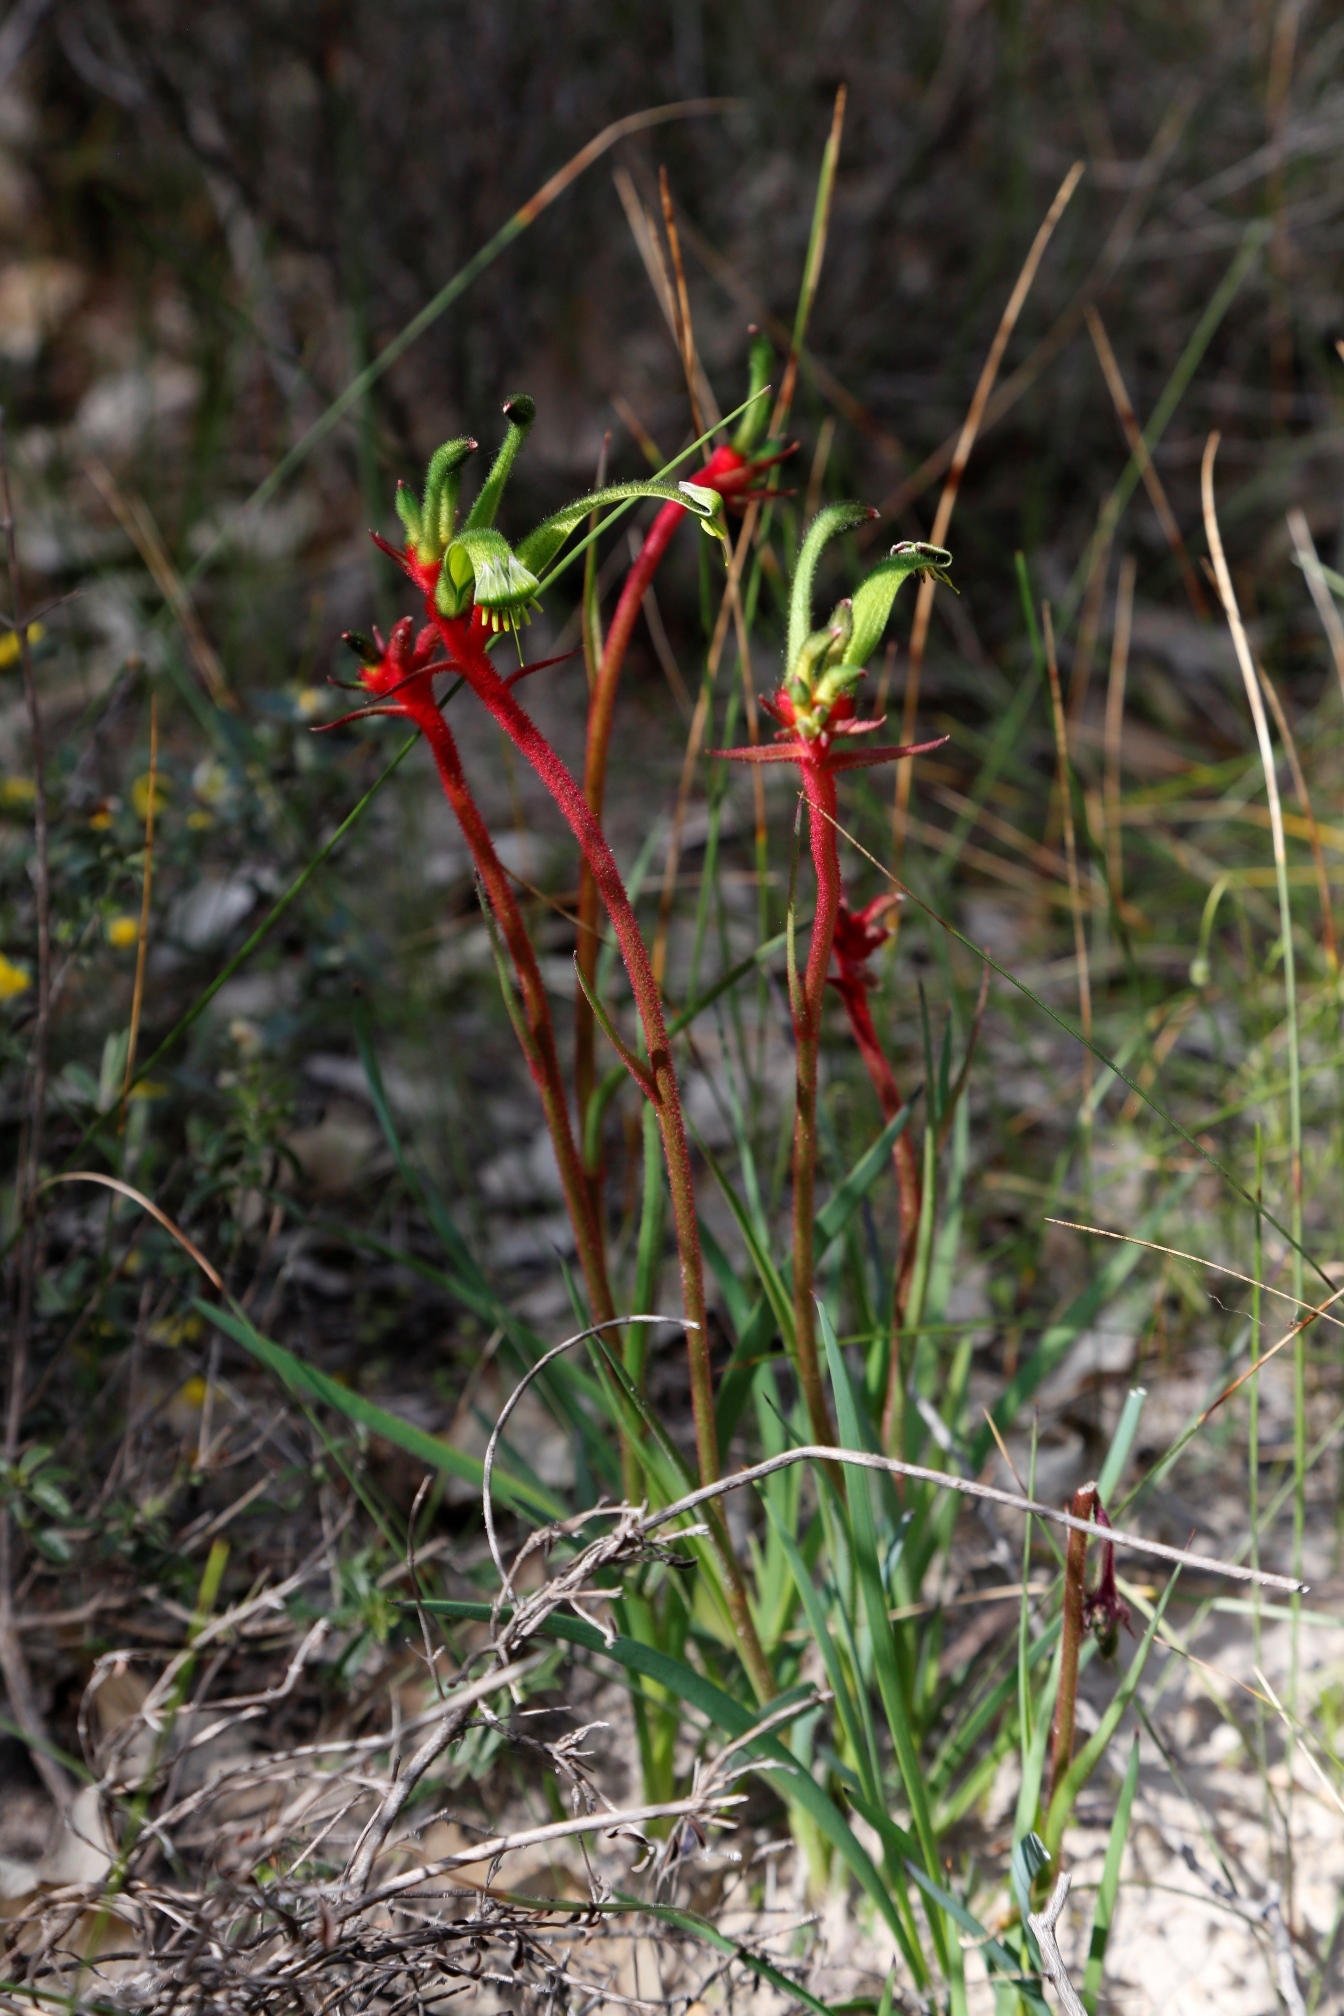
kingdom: Plantae
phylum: Tracheophyta
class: Liliopsida
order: Commelinales
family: Haemodoraceae
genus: Anigozanthos
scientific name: Anigozanthos bicolor
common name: Little kangaroo-paw
